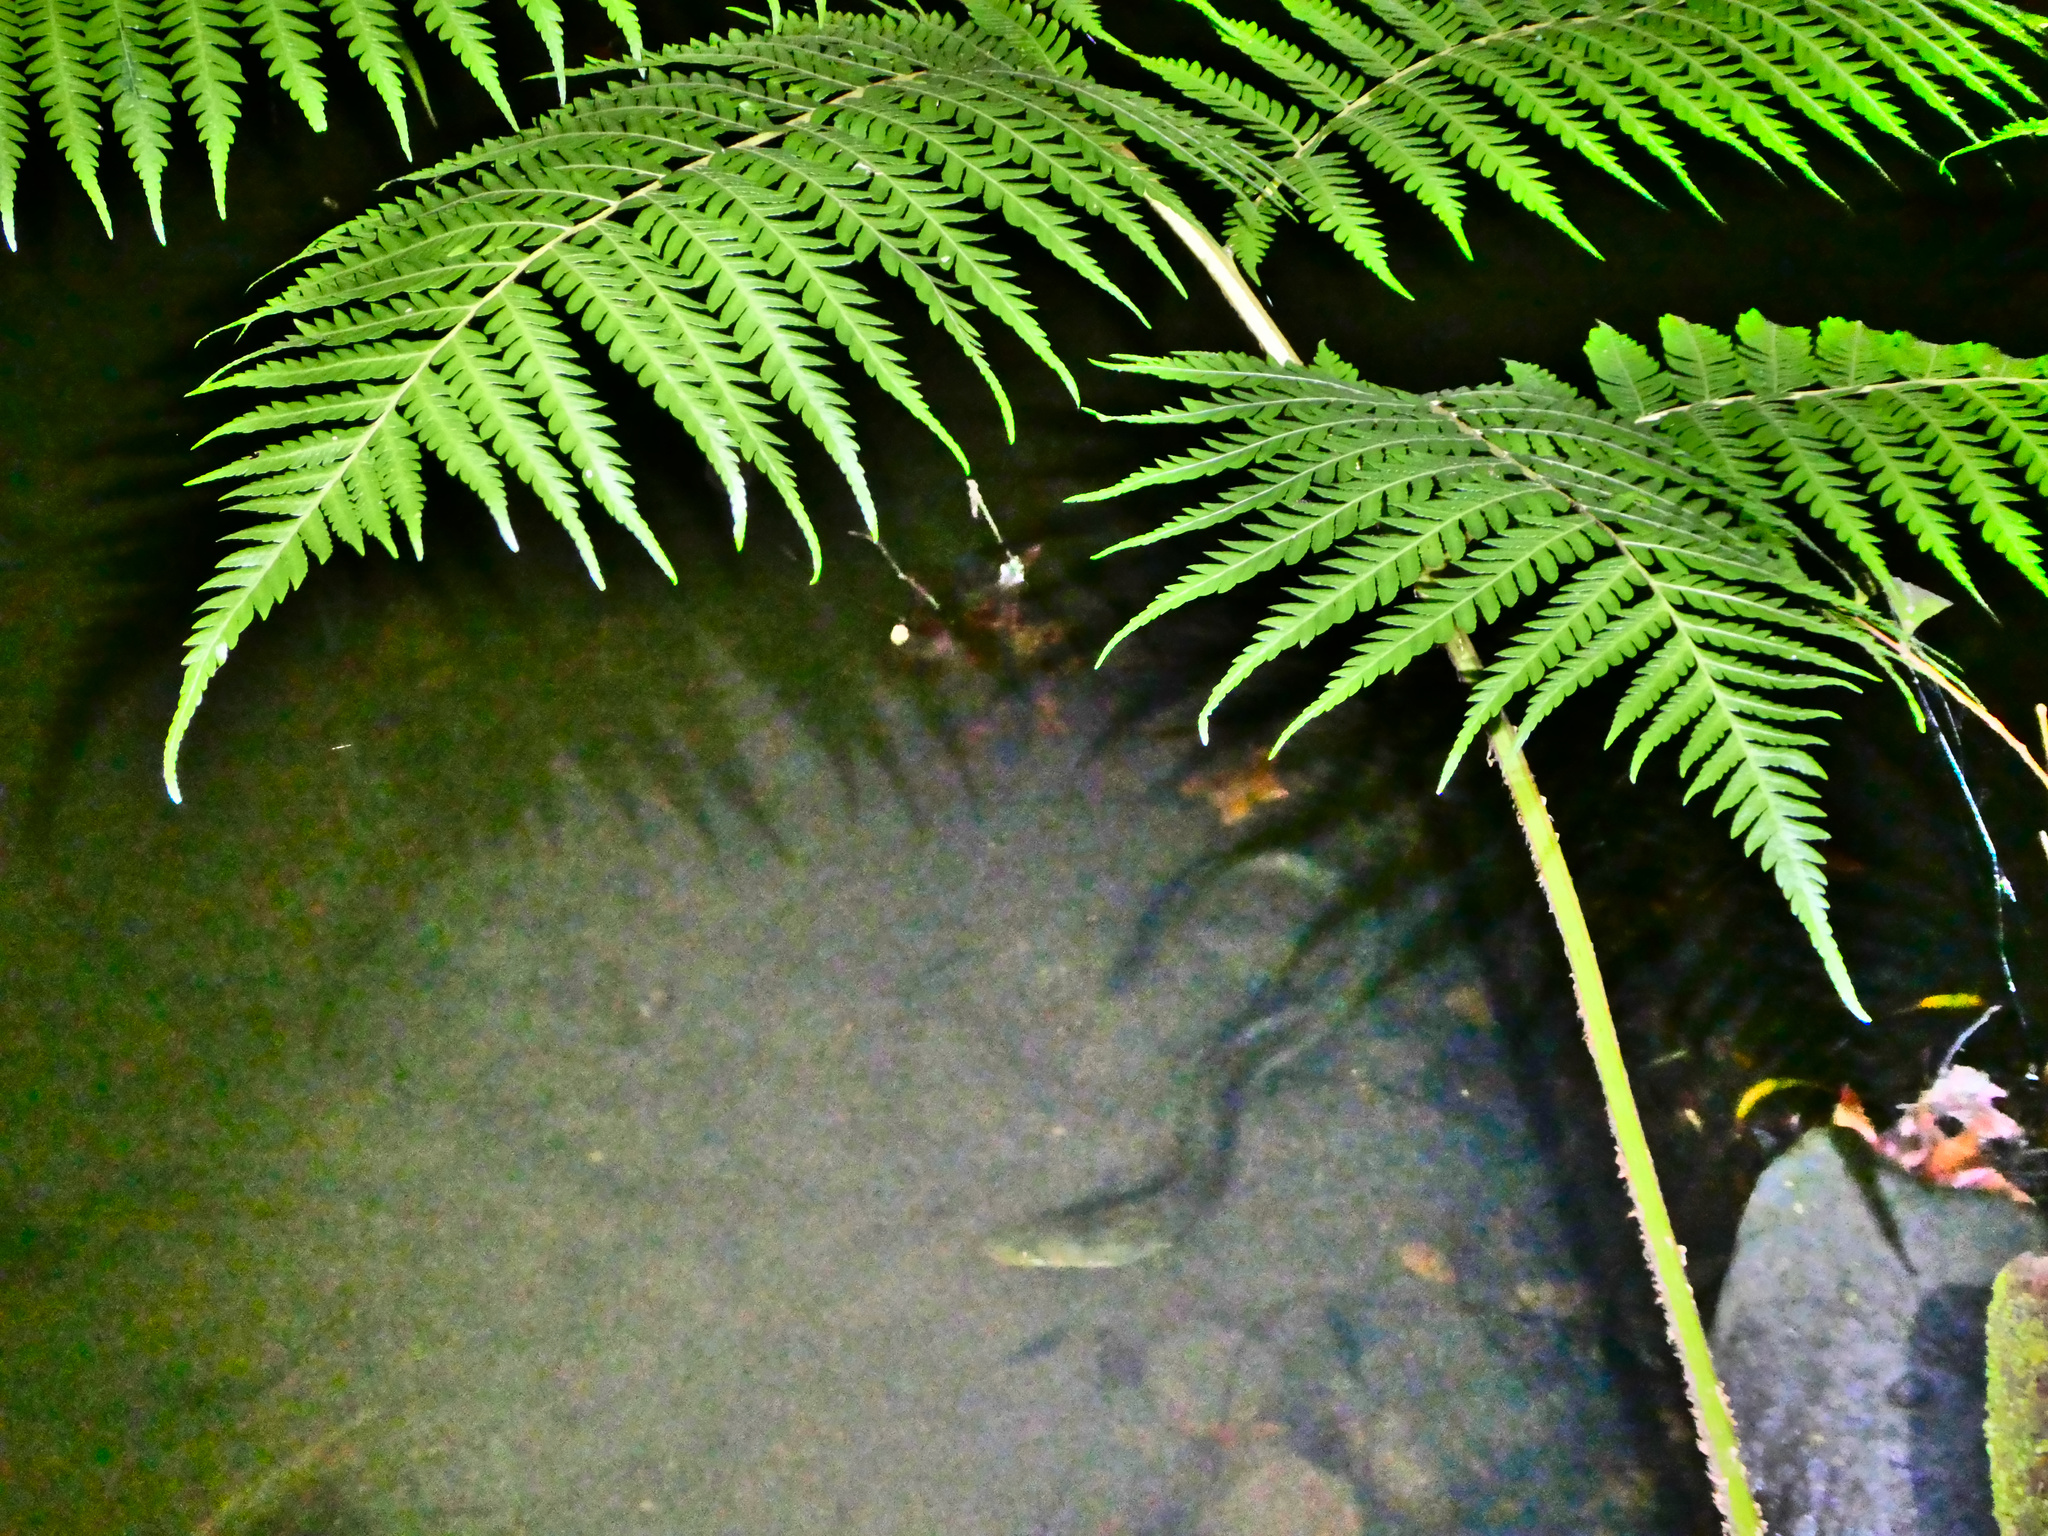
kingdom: Animalia
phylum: Chordata
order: Anguilliformes
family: Anguillidae
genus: Anguilla
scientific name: Anguilla reinhardtii
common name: Longfin eel
